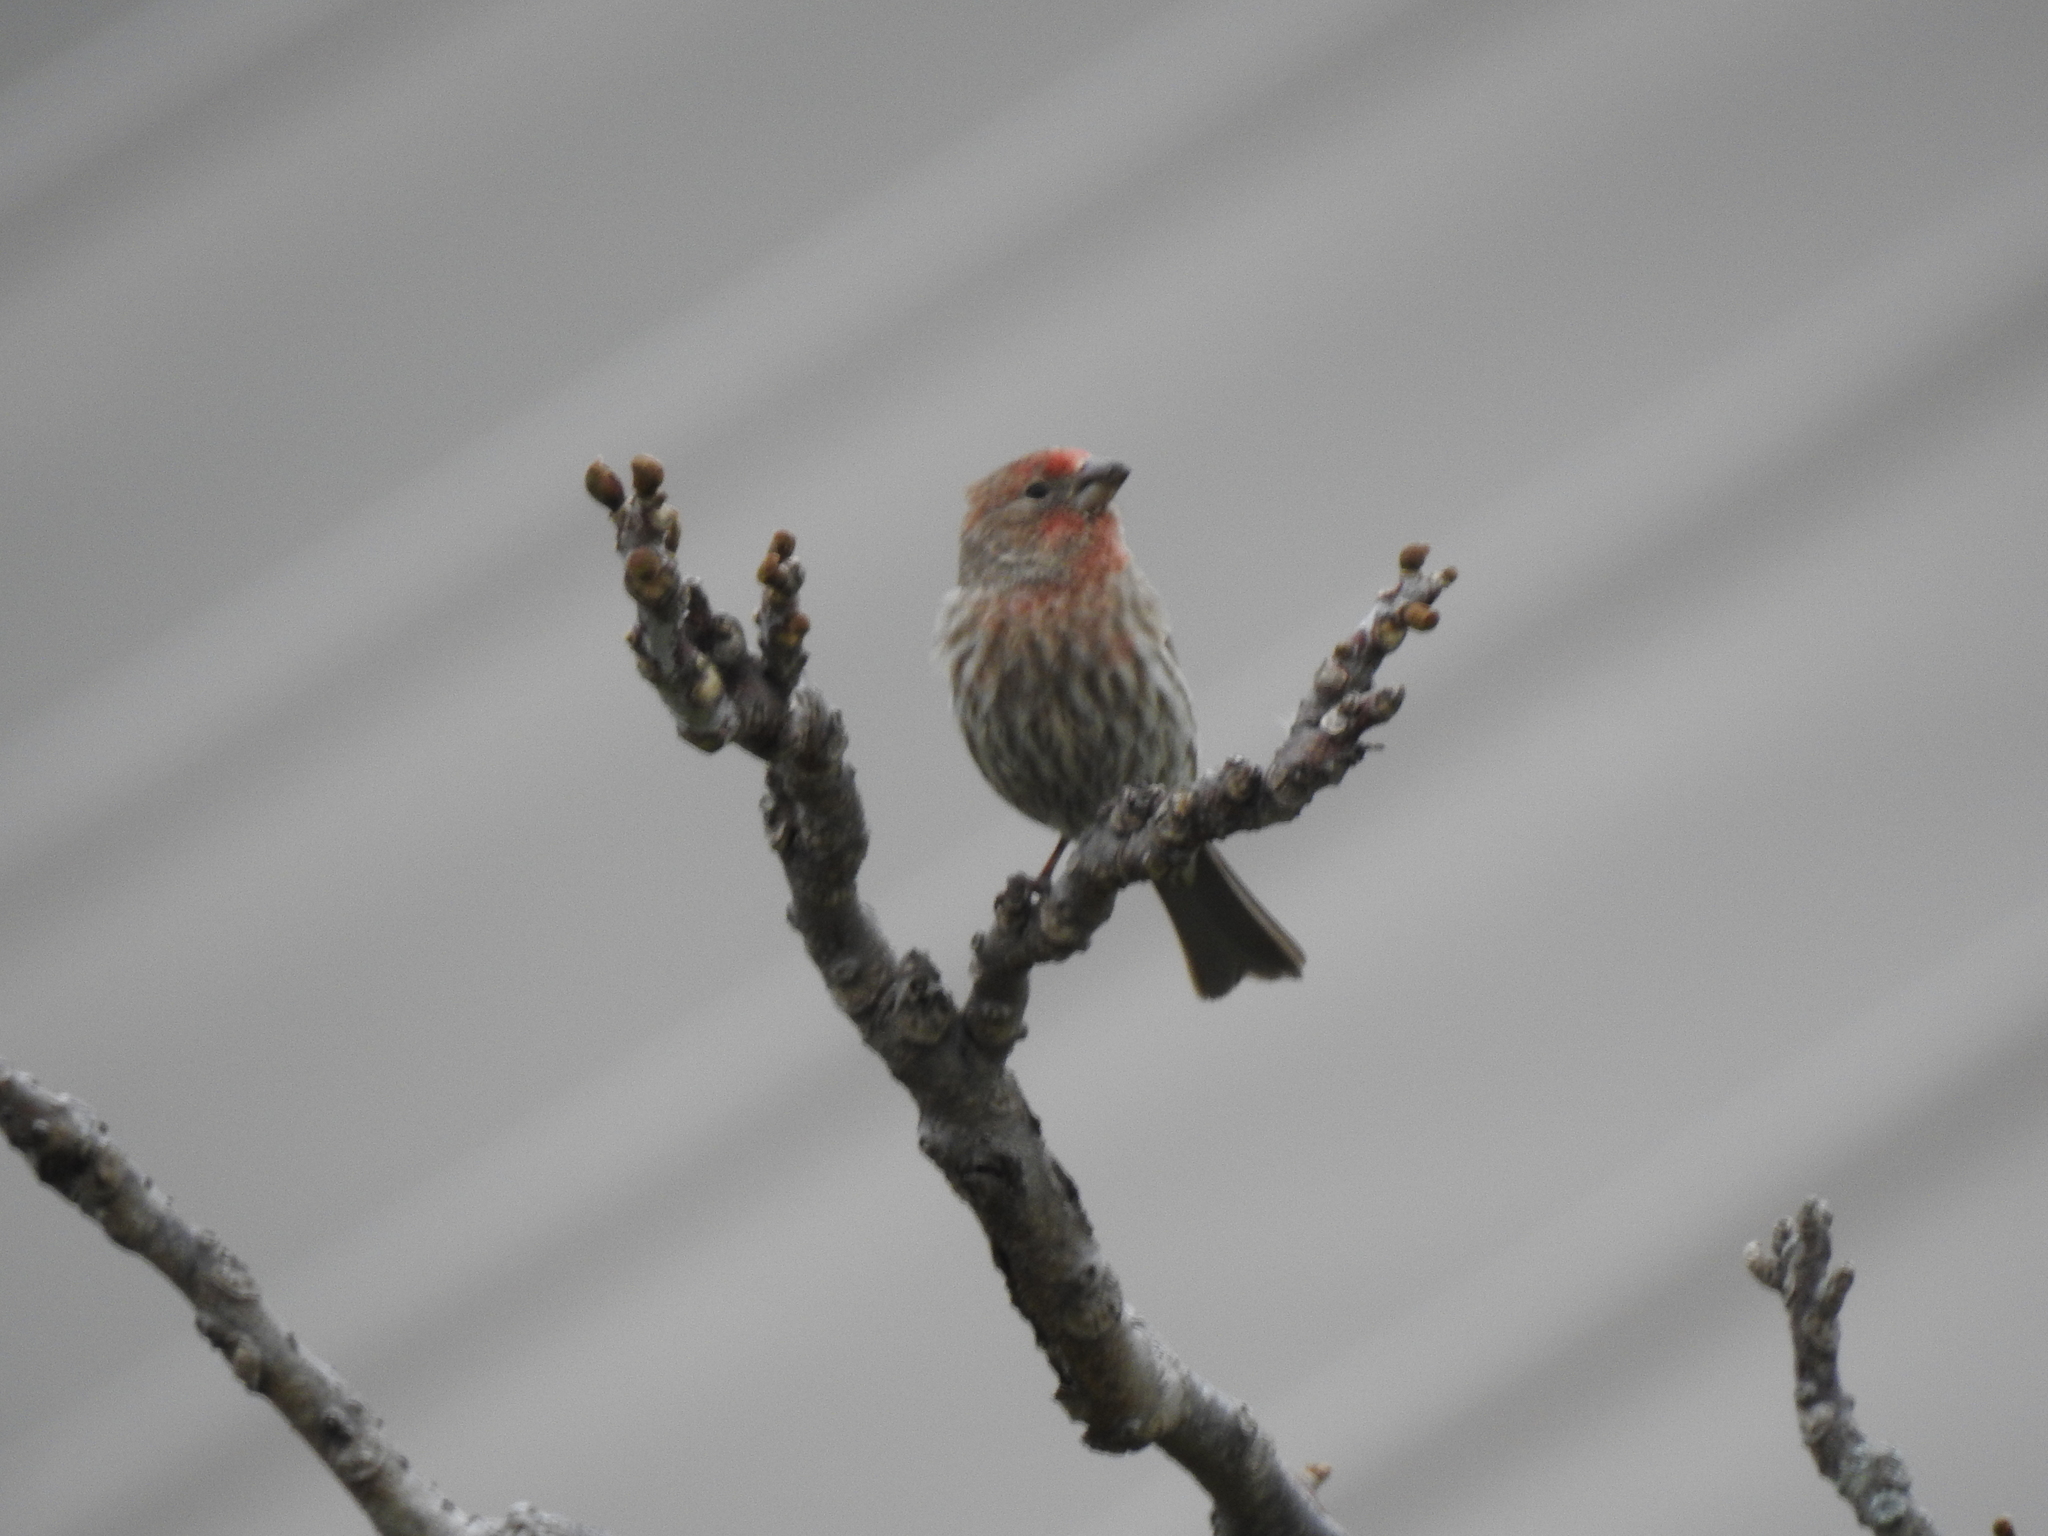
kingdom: Animalia
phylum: Chordata
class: Aves
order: Passeriformes
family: Fringillidae
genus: Haemorhous
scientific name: Haemorhous mexicanus
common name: House finch
